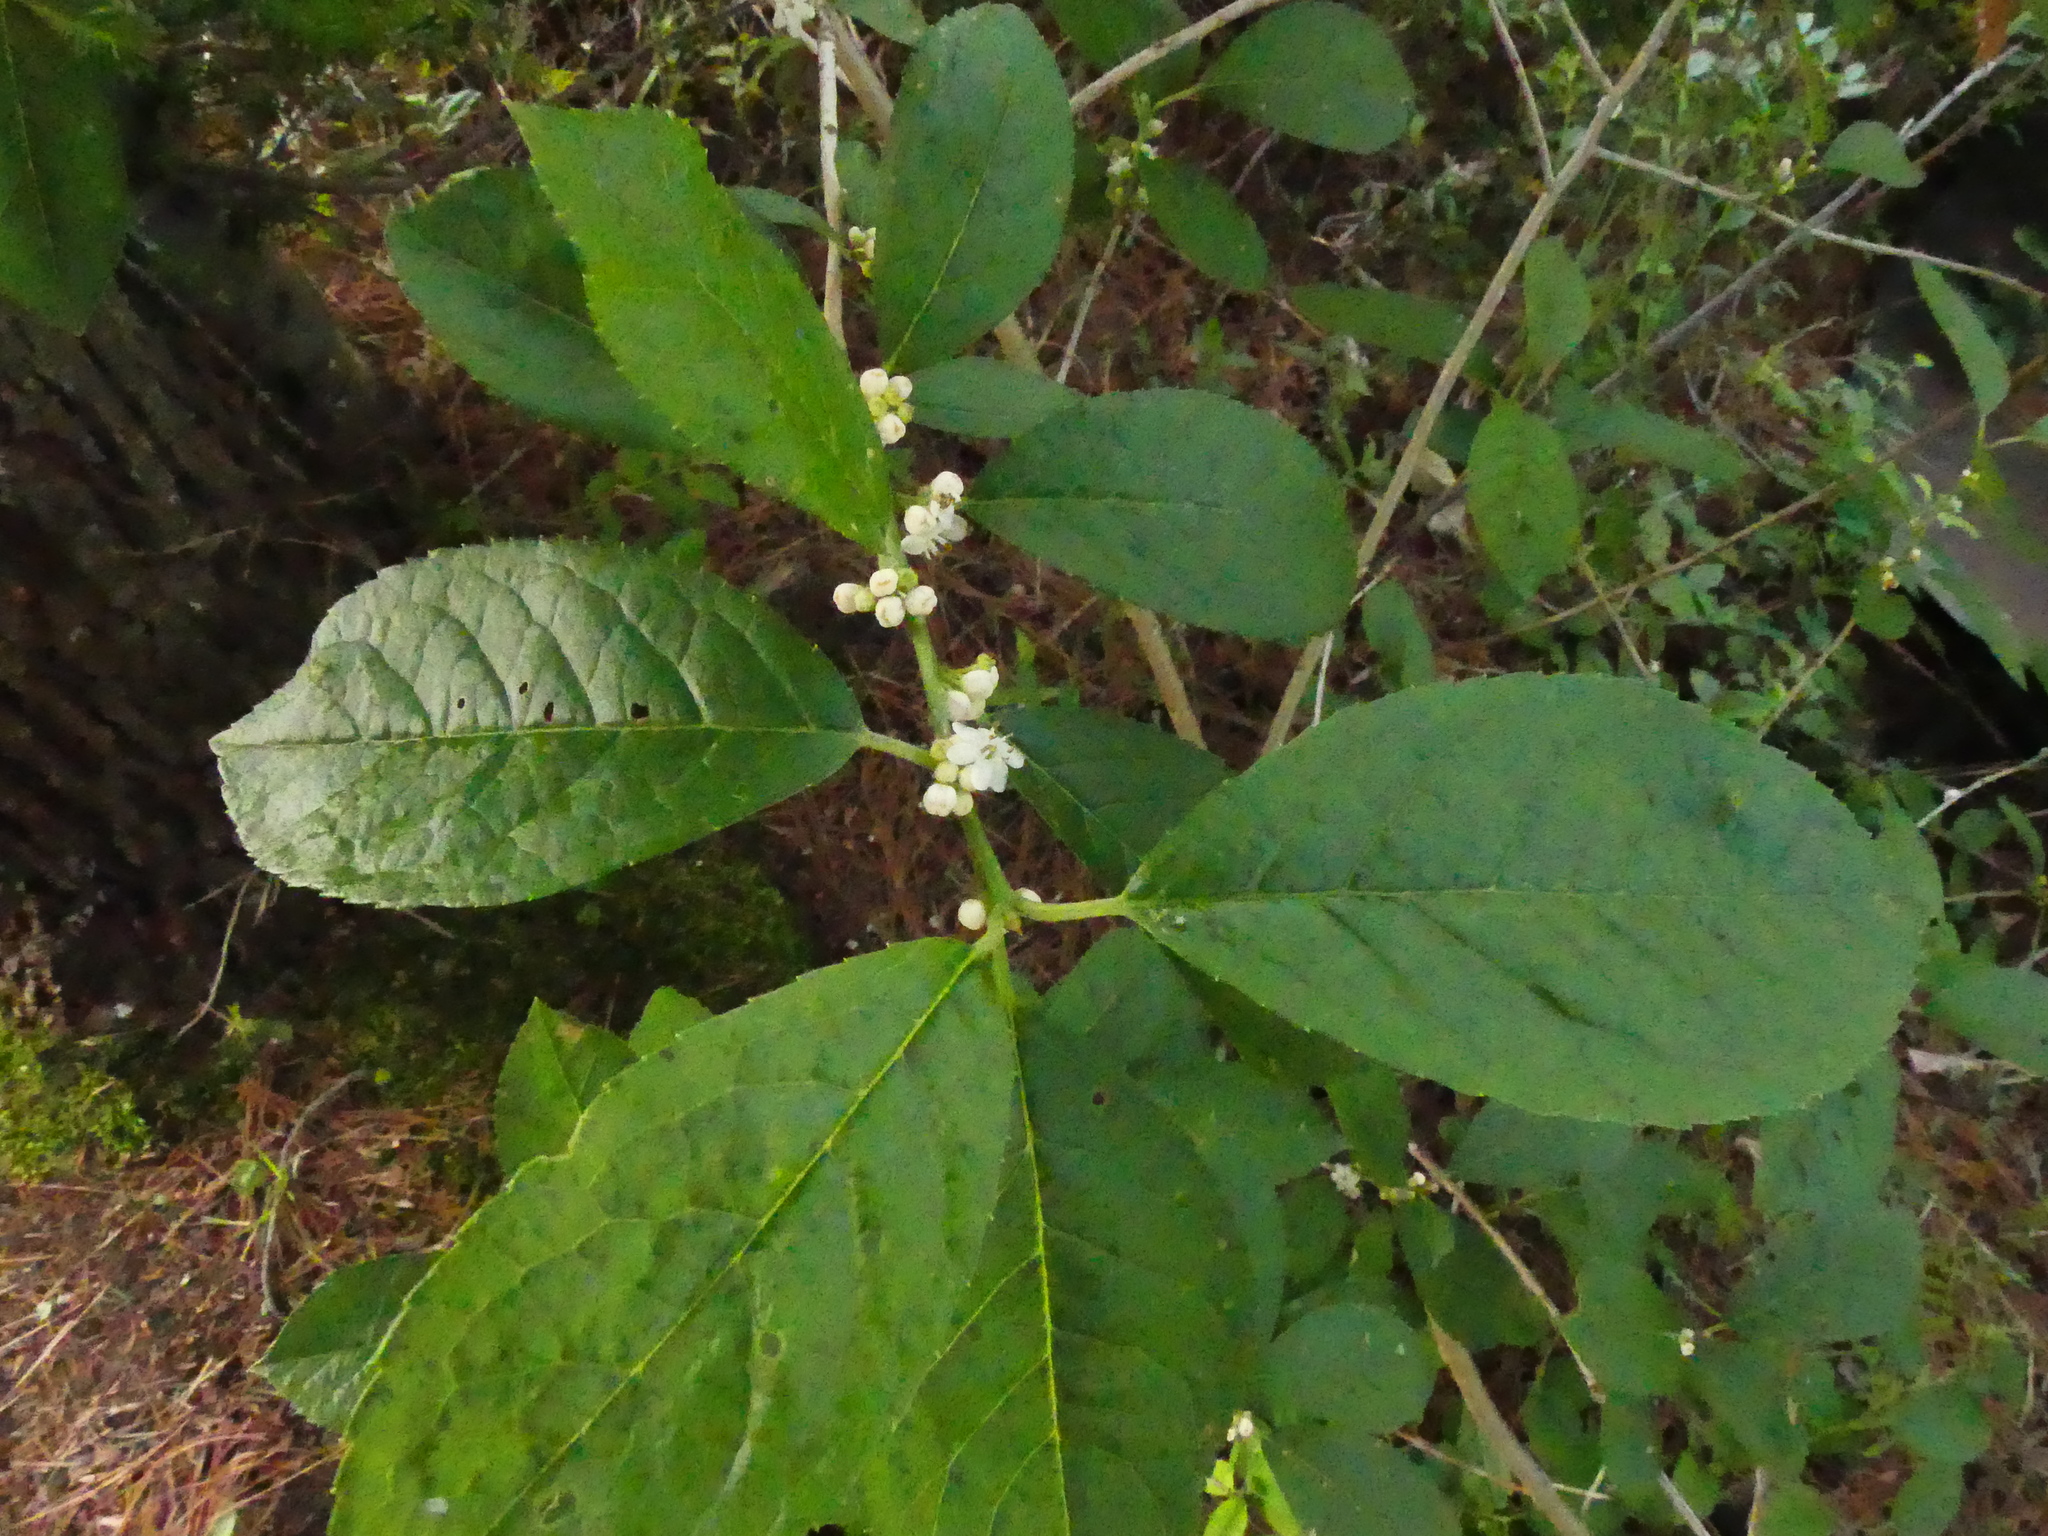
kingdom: Plantae
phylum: Tracheophyta
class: Magnoliopsida
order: Aquifoliales
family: Aquifoliaceae
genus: Ilex
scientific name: Ilex verticillata
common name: Virginia winterberry
